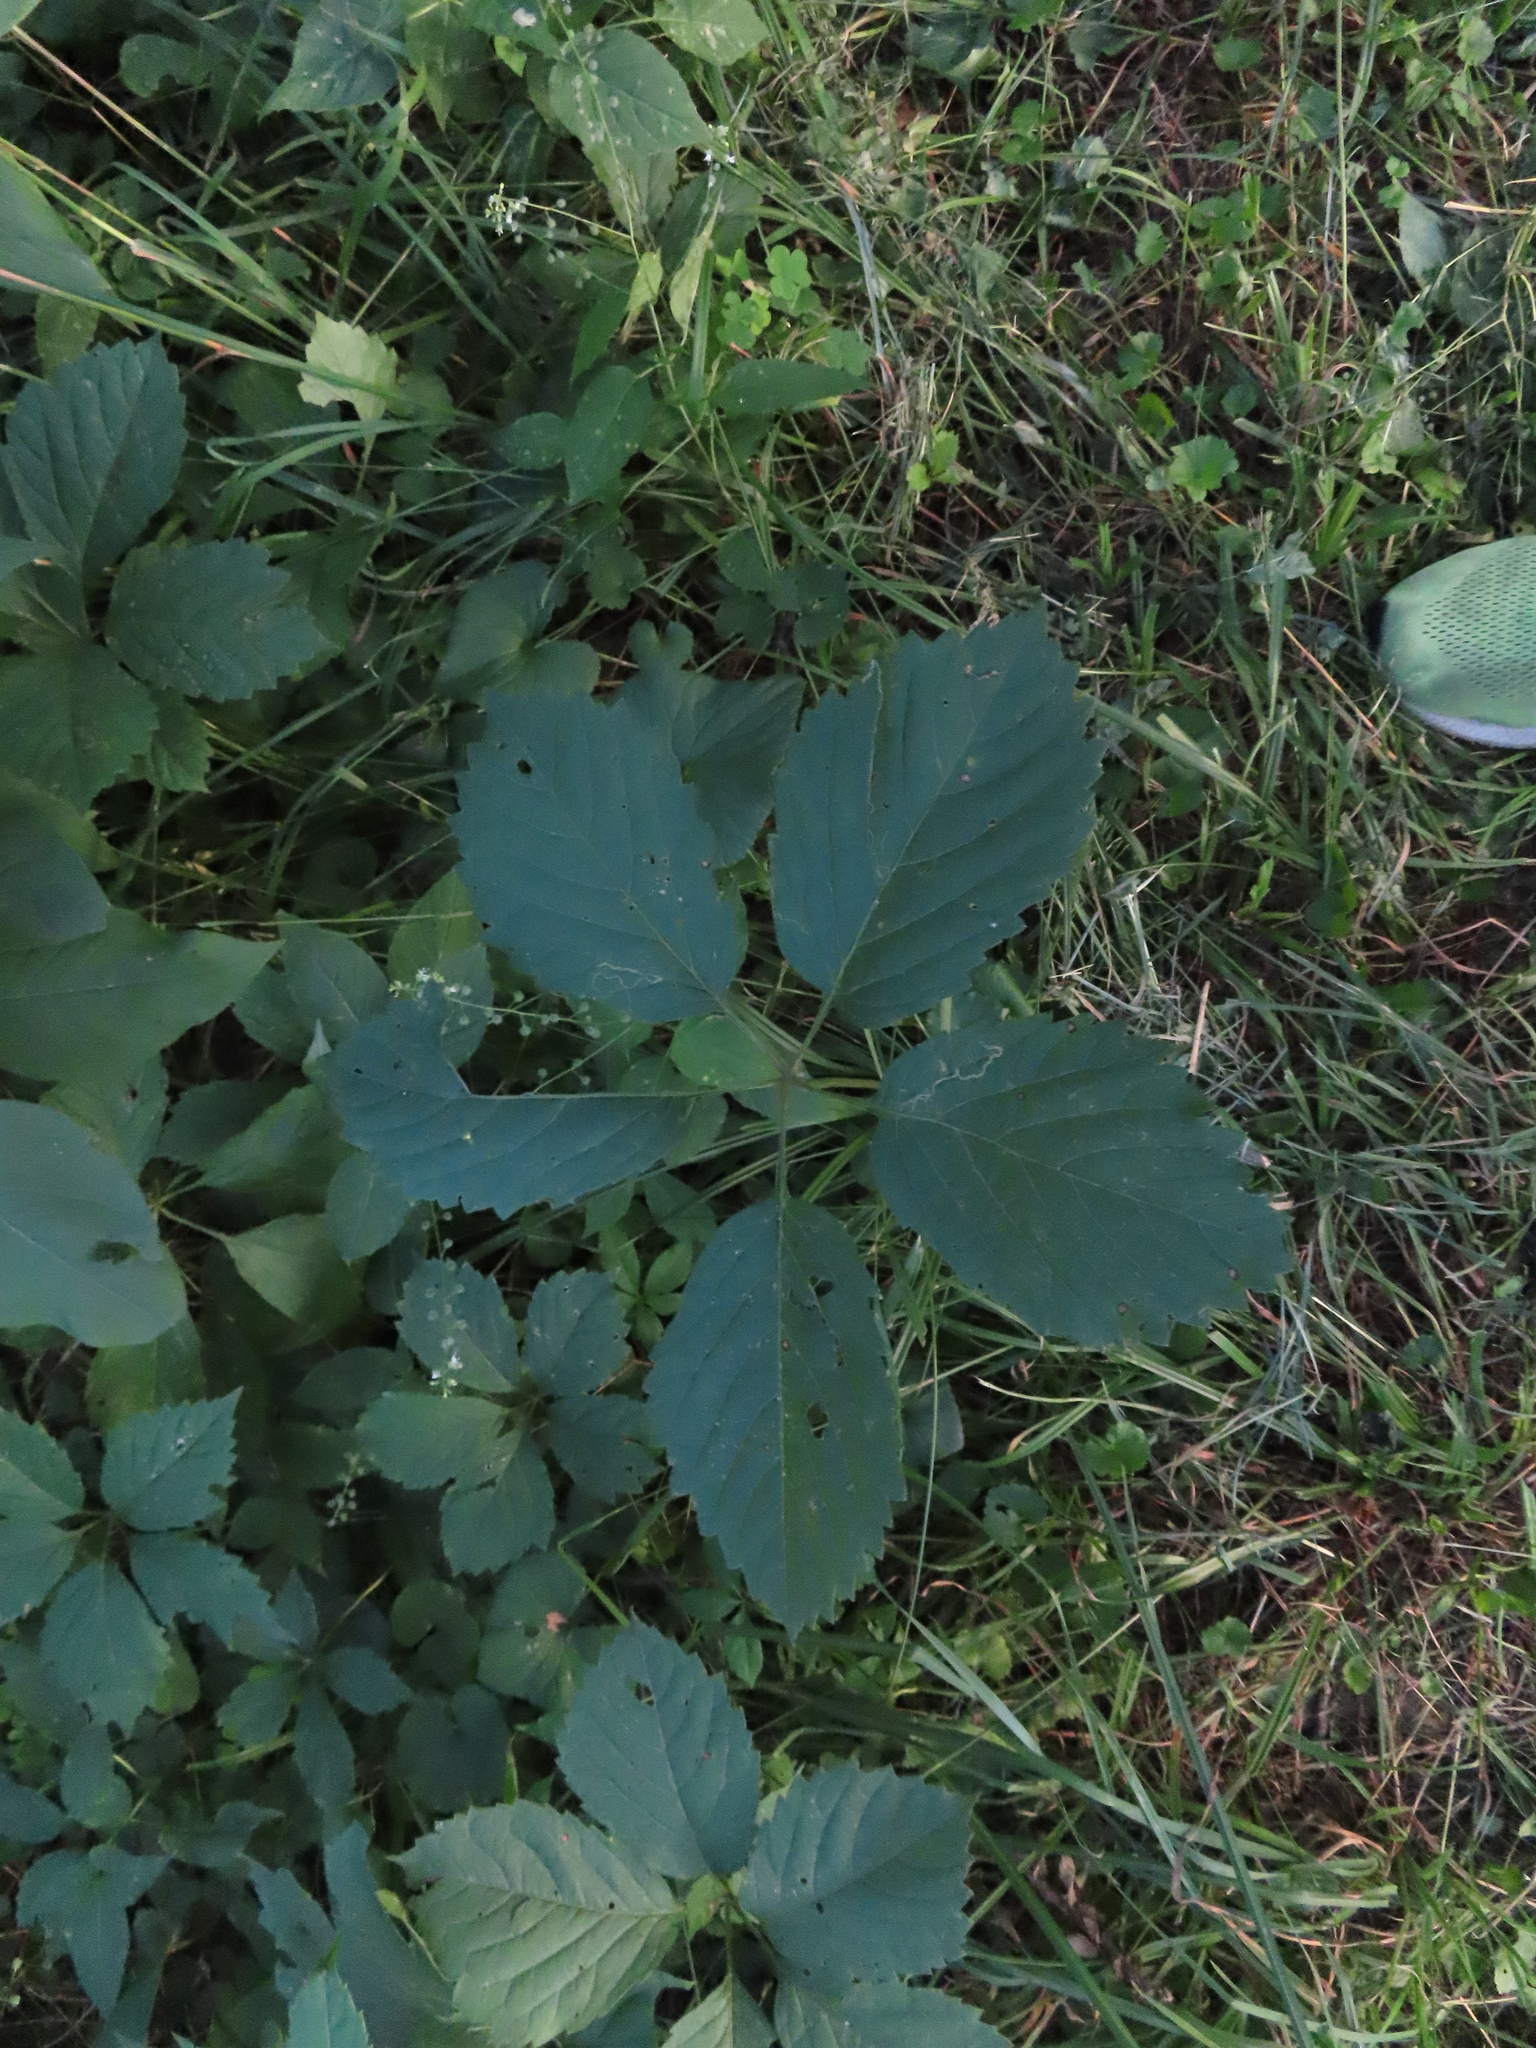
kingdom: Plantae
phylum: Tracheophyta
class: Magnoliopsida
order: Vitales
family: Vitaceae
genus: Parthenocissus
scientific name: Parthenocissus inserta
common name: False virginia-creeper
